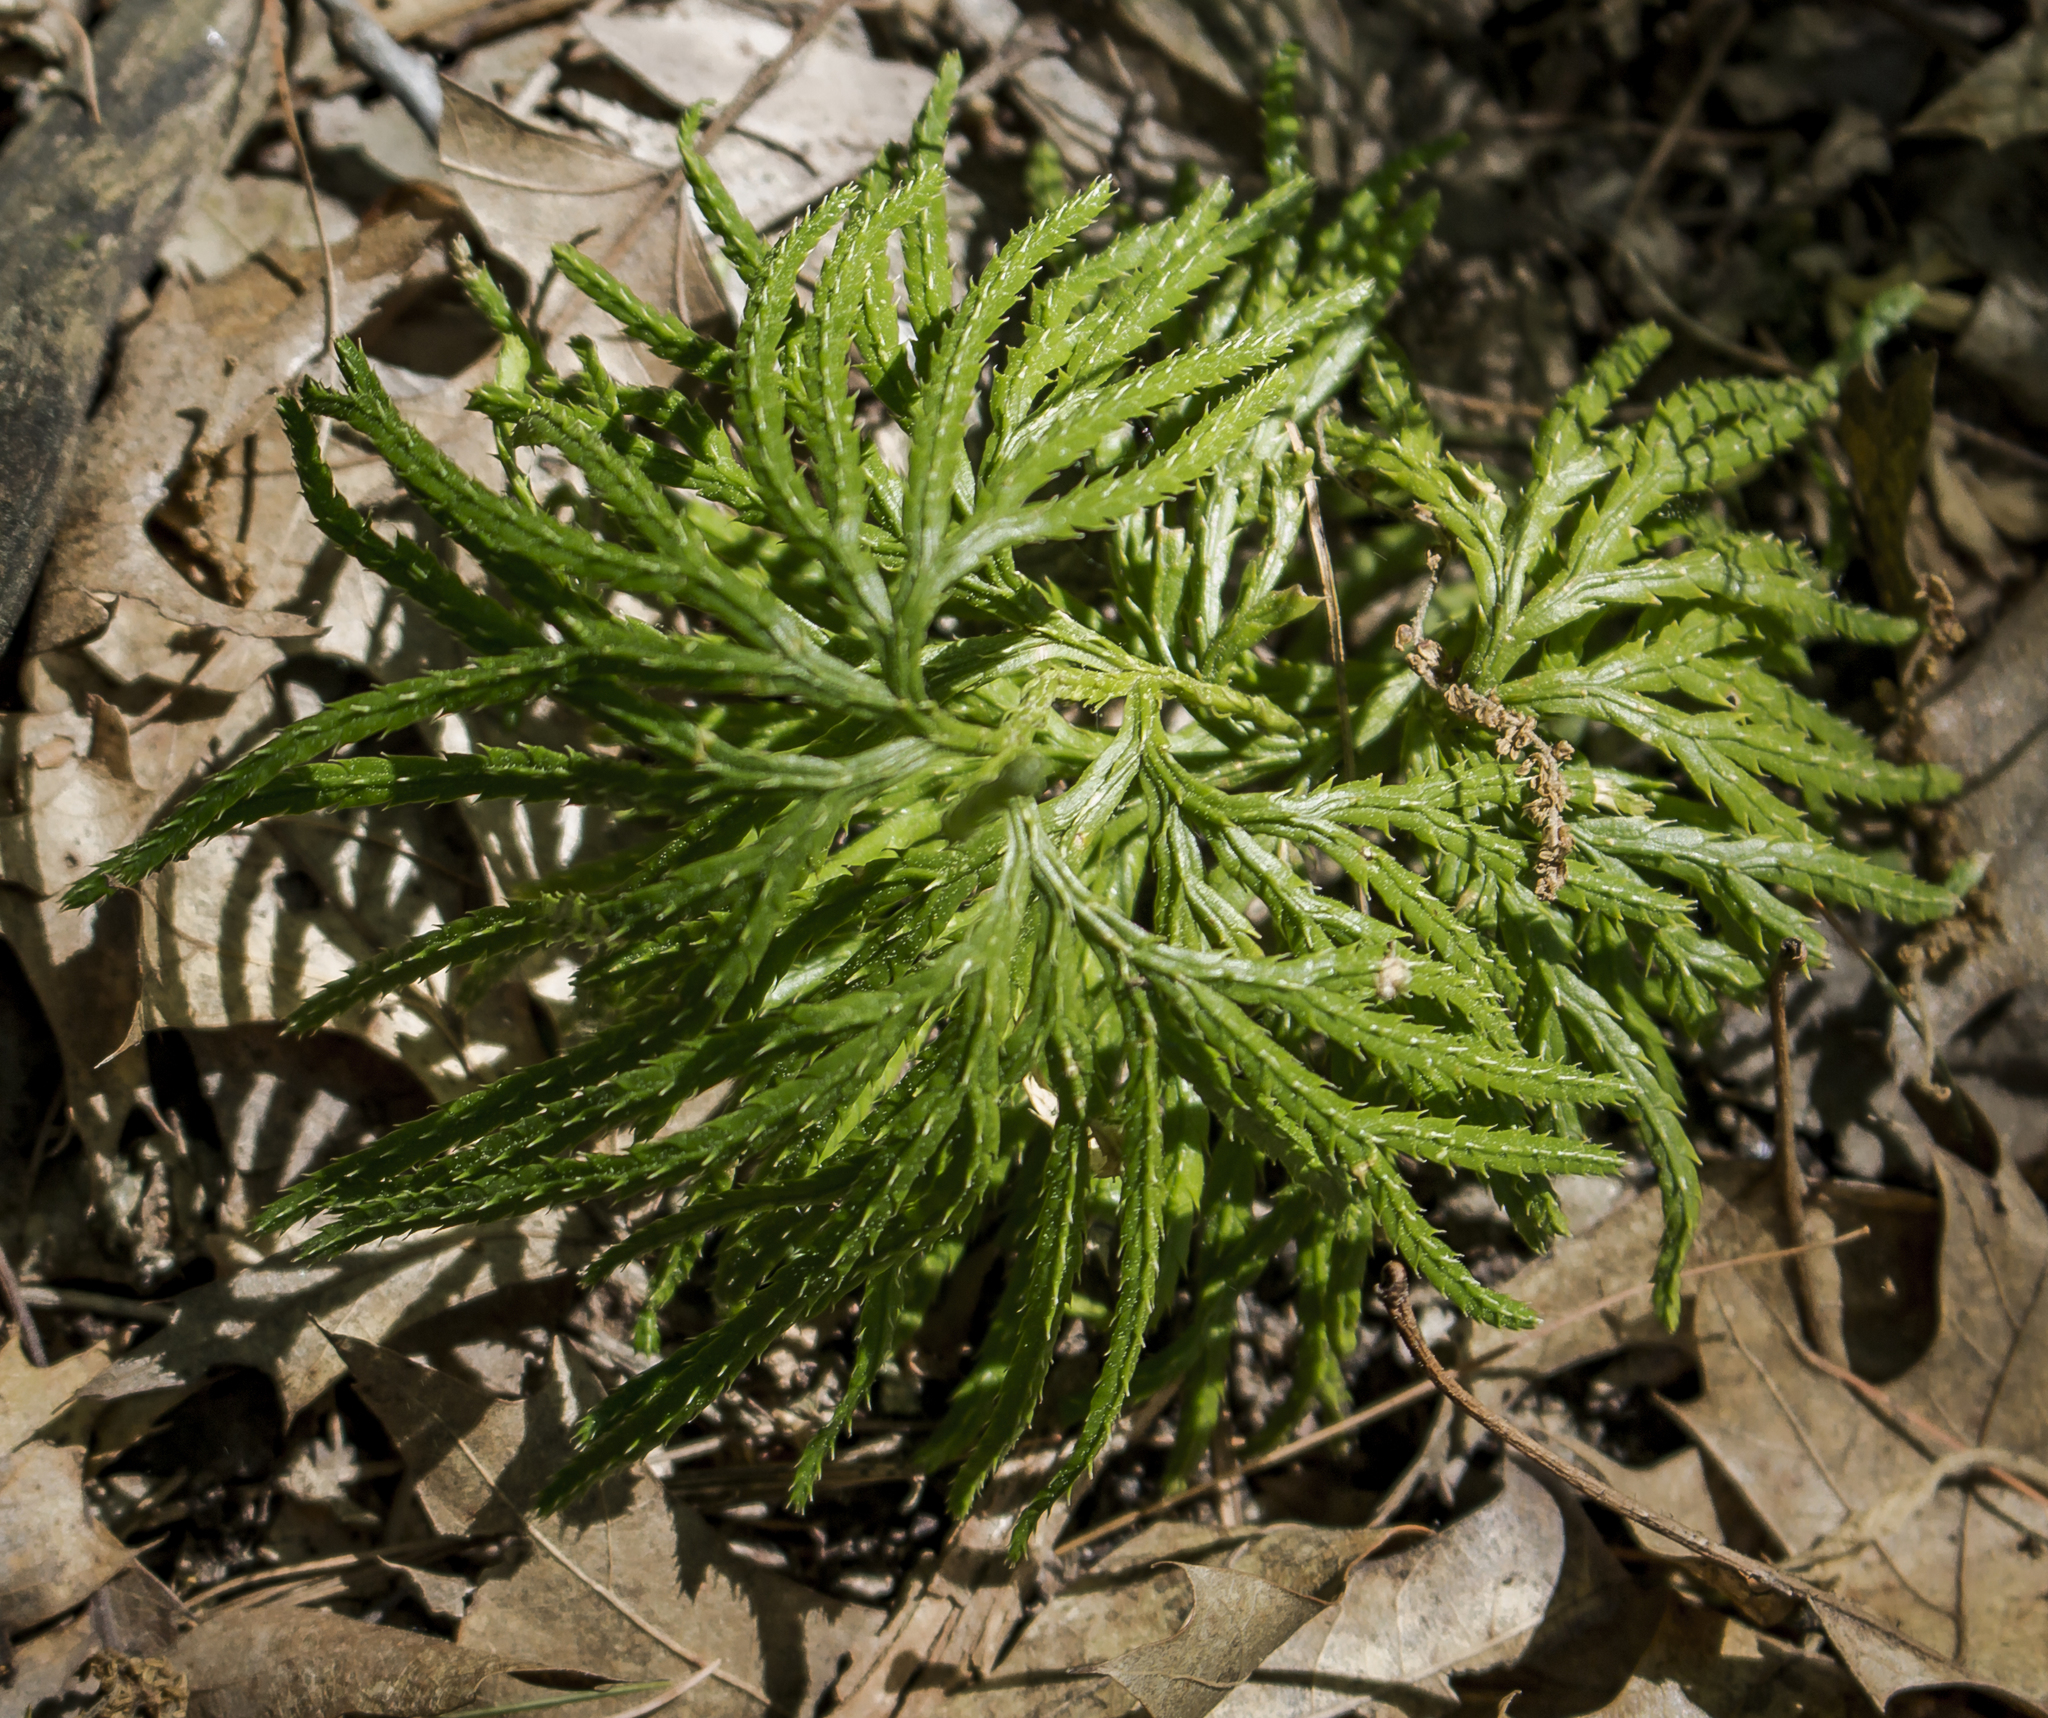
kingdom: Plantae
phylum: Tracheophyta
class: Lycopodiopsida
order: Lycopodiales
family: Lycopodiaceae
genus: Diphasiastrum
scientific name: Diphasiastrum digitatum
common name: Southern running-pine
